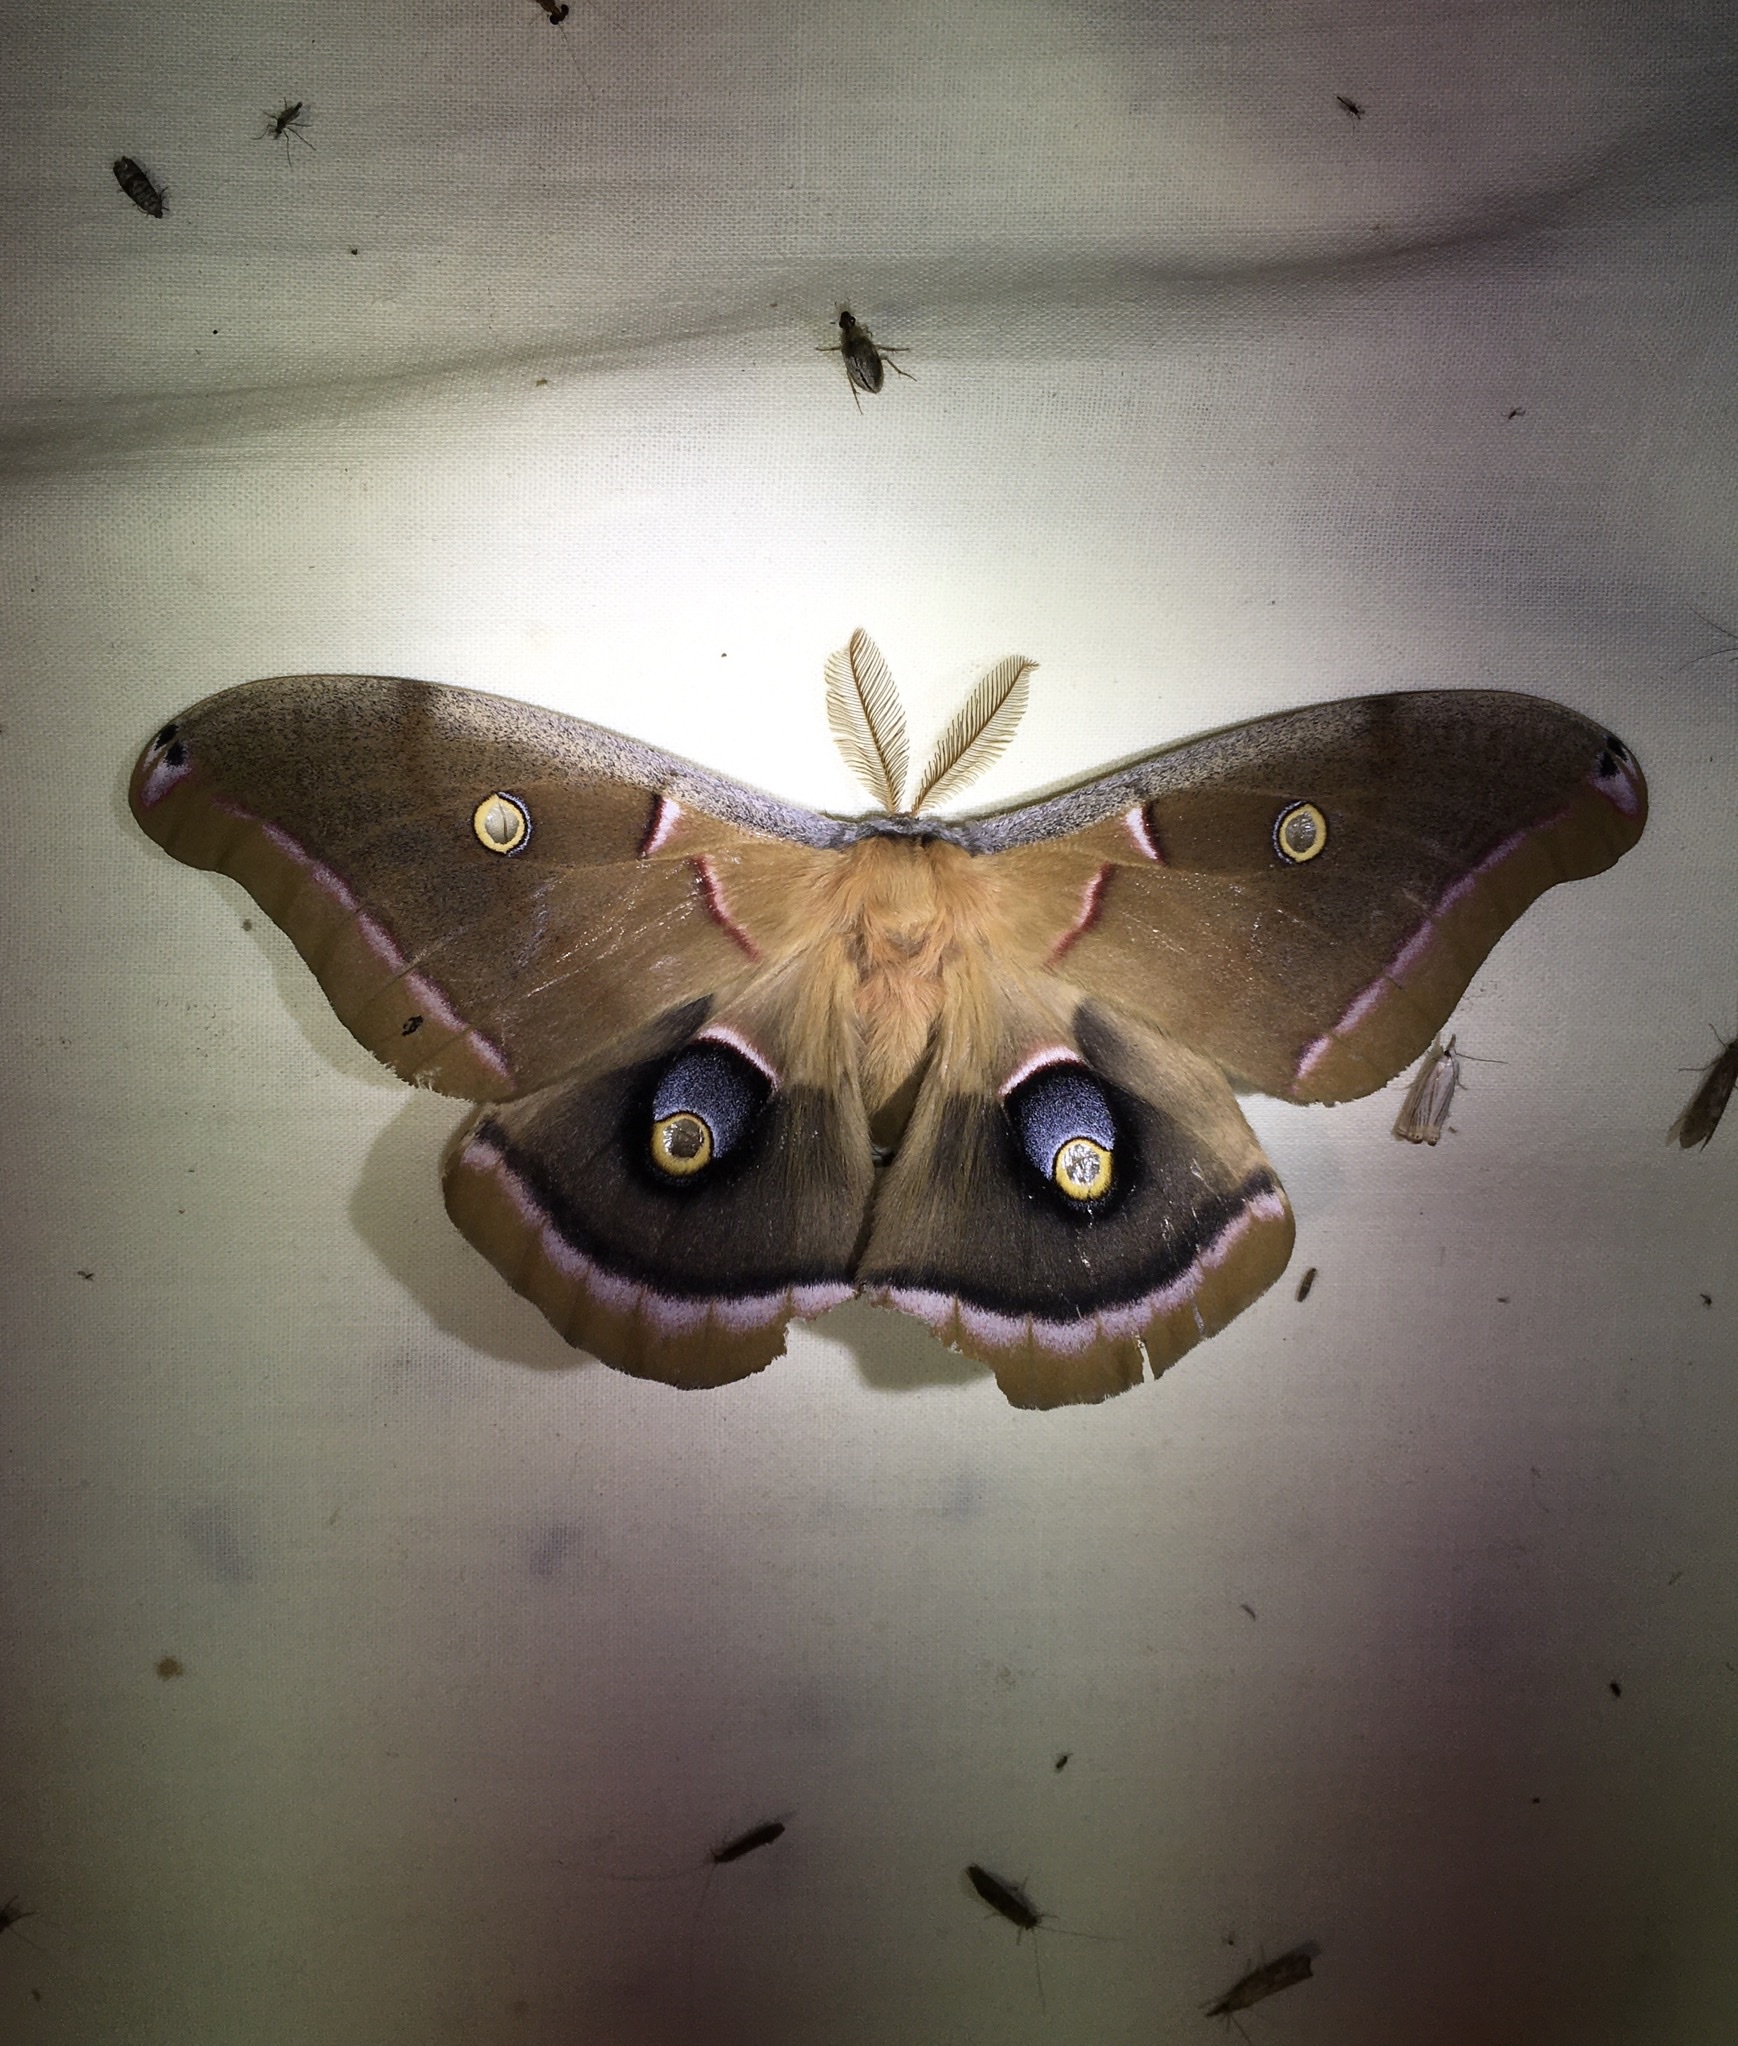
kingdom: Animalia
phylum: Arthropoda
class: Insecta
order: Lepidoptera
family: Saturniidae
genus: Antheraea
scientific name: Antheraea polyphemus
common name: Polyphemus moth
